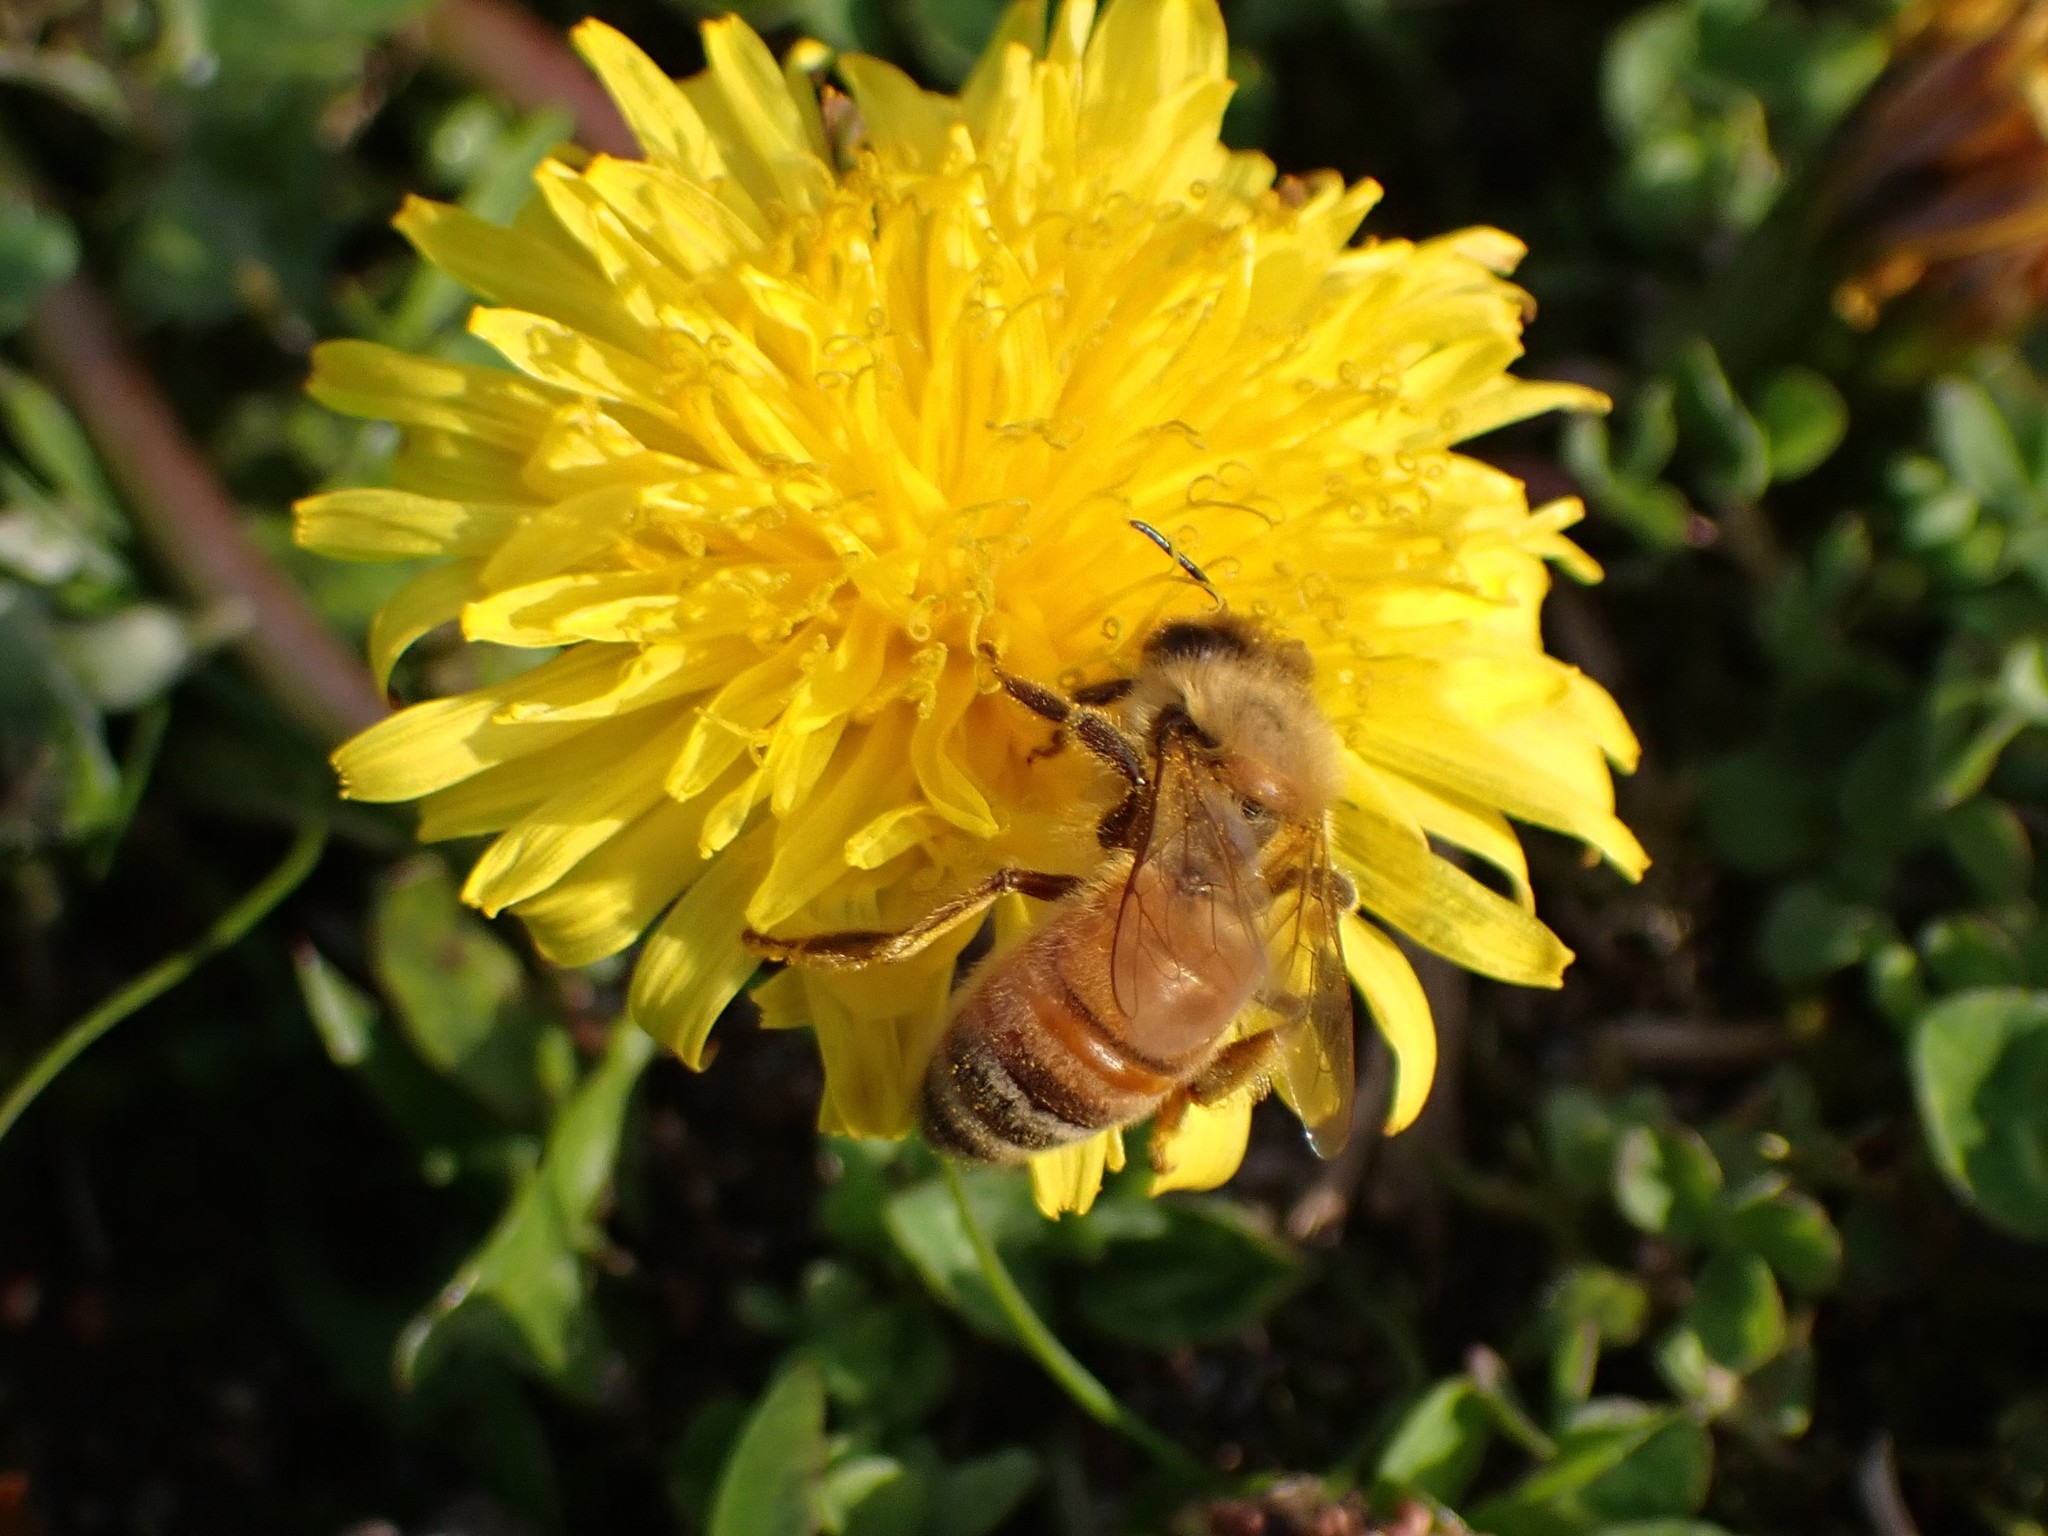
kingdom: Animalia
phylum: Arthropoda
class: Insecta
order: Hymenoptera
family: Apidae
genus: Apis
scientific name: Apis mellifera
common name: Honey bee
